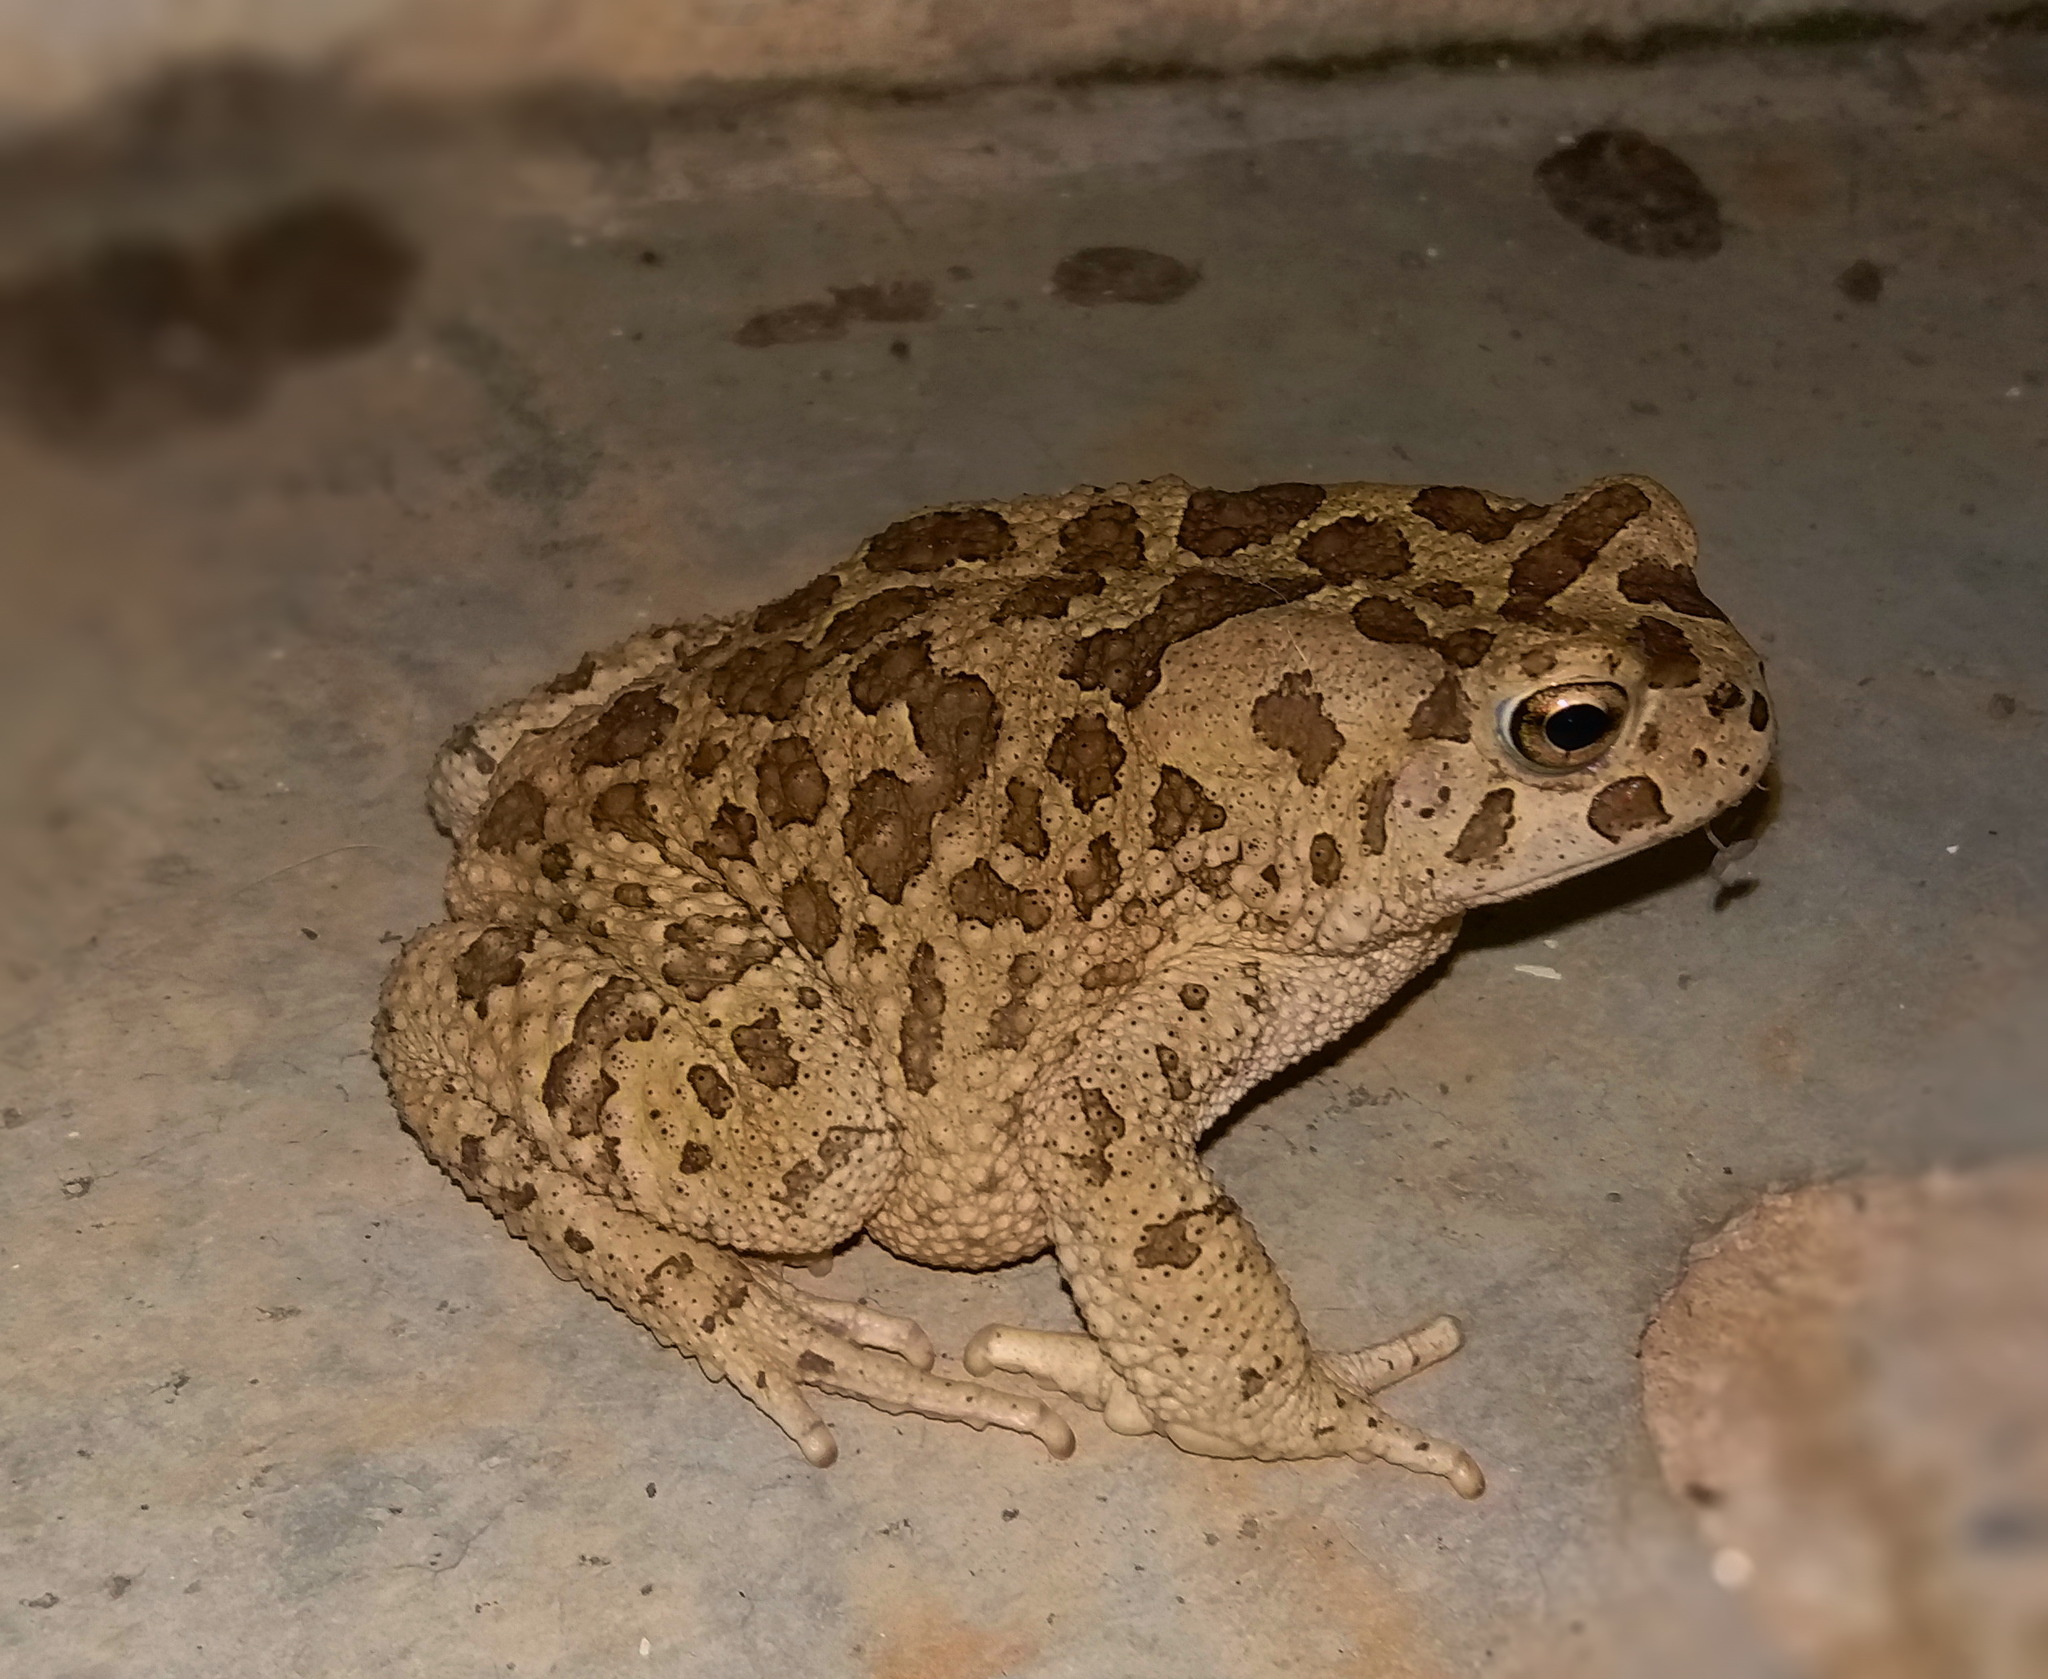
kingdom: Animalia
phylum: Chordata
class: Amphibia
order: Anura
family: Bufonidae
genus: Sclerophrys
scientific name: Sclerophrys mauritanica
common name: Berber toad
